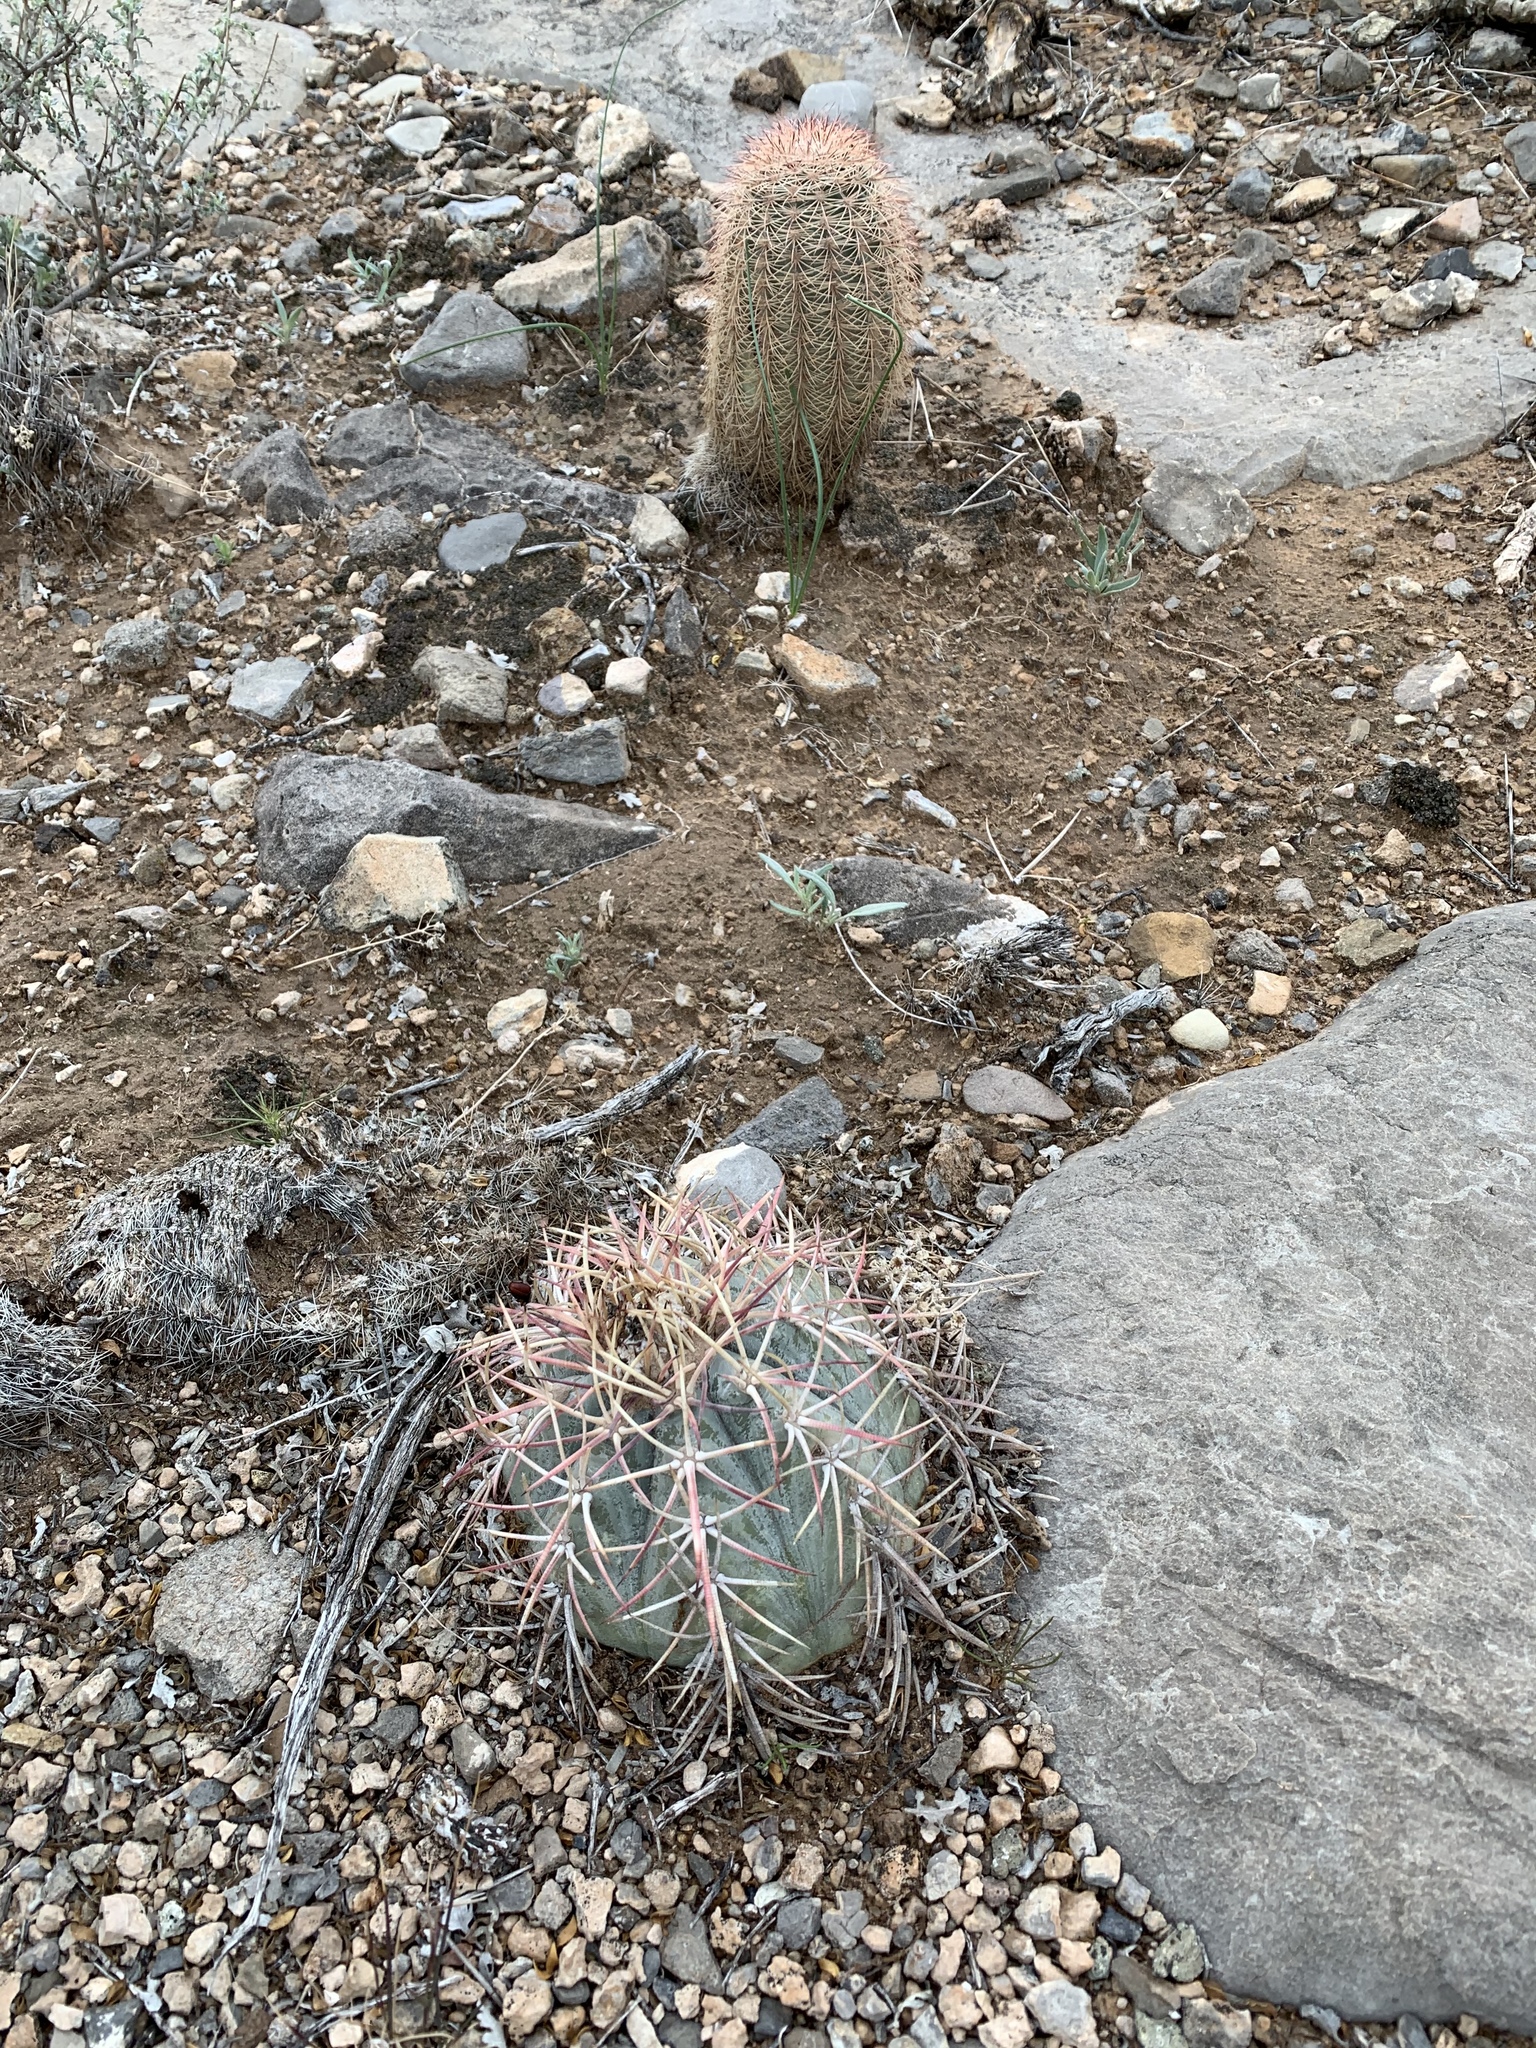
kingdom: Plantae
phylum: Tracheophyta
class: Magnoliopsida
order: Caryophyllales
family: Cactaceae
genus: Echinocactus
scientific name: Echinocactus horizonthalonius
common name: Devilshead
